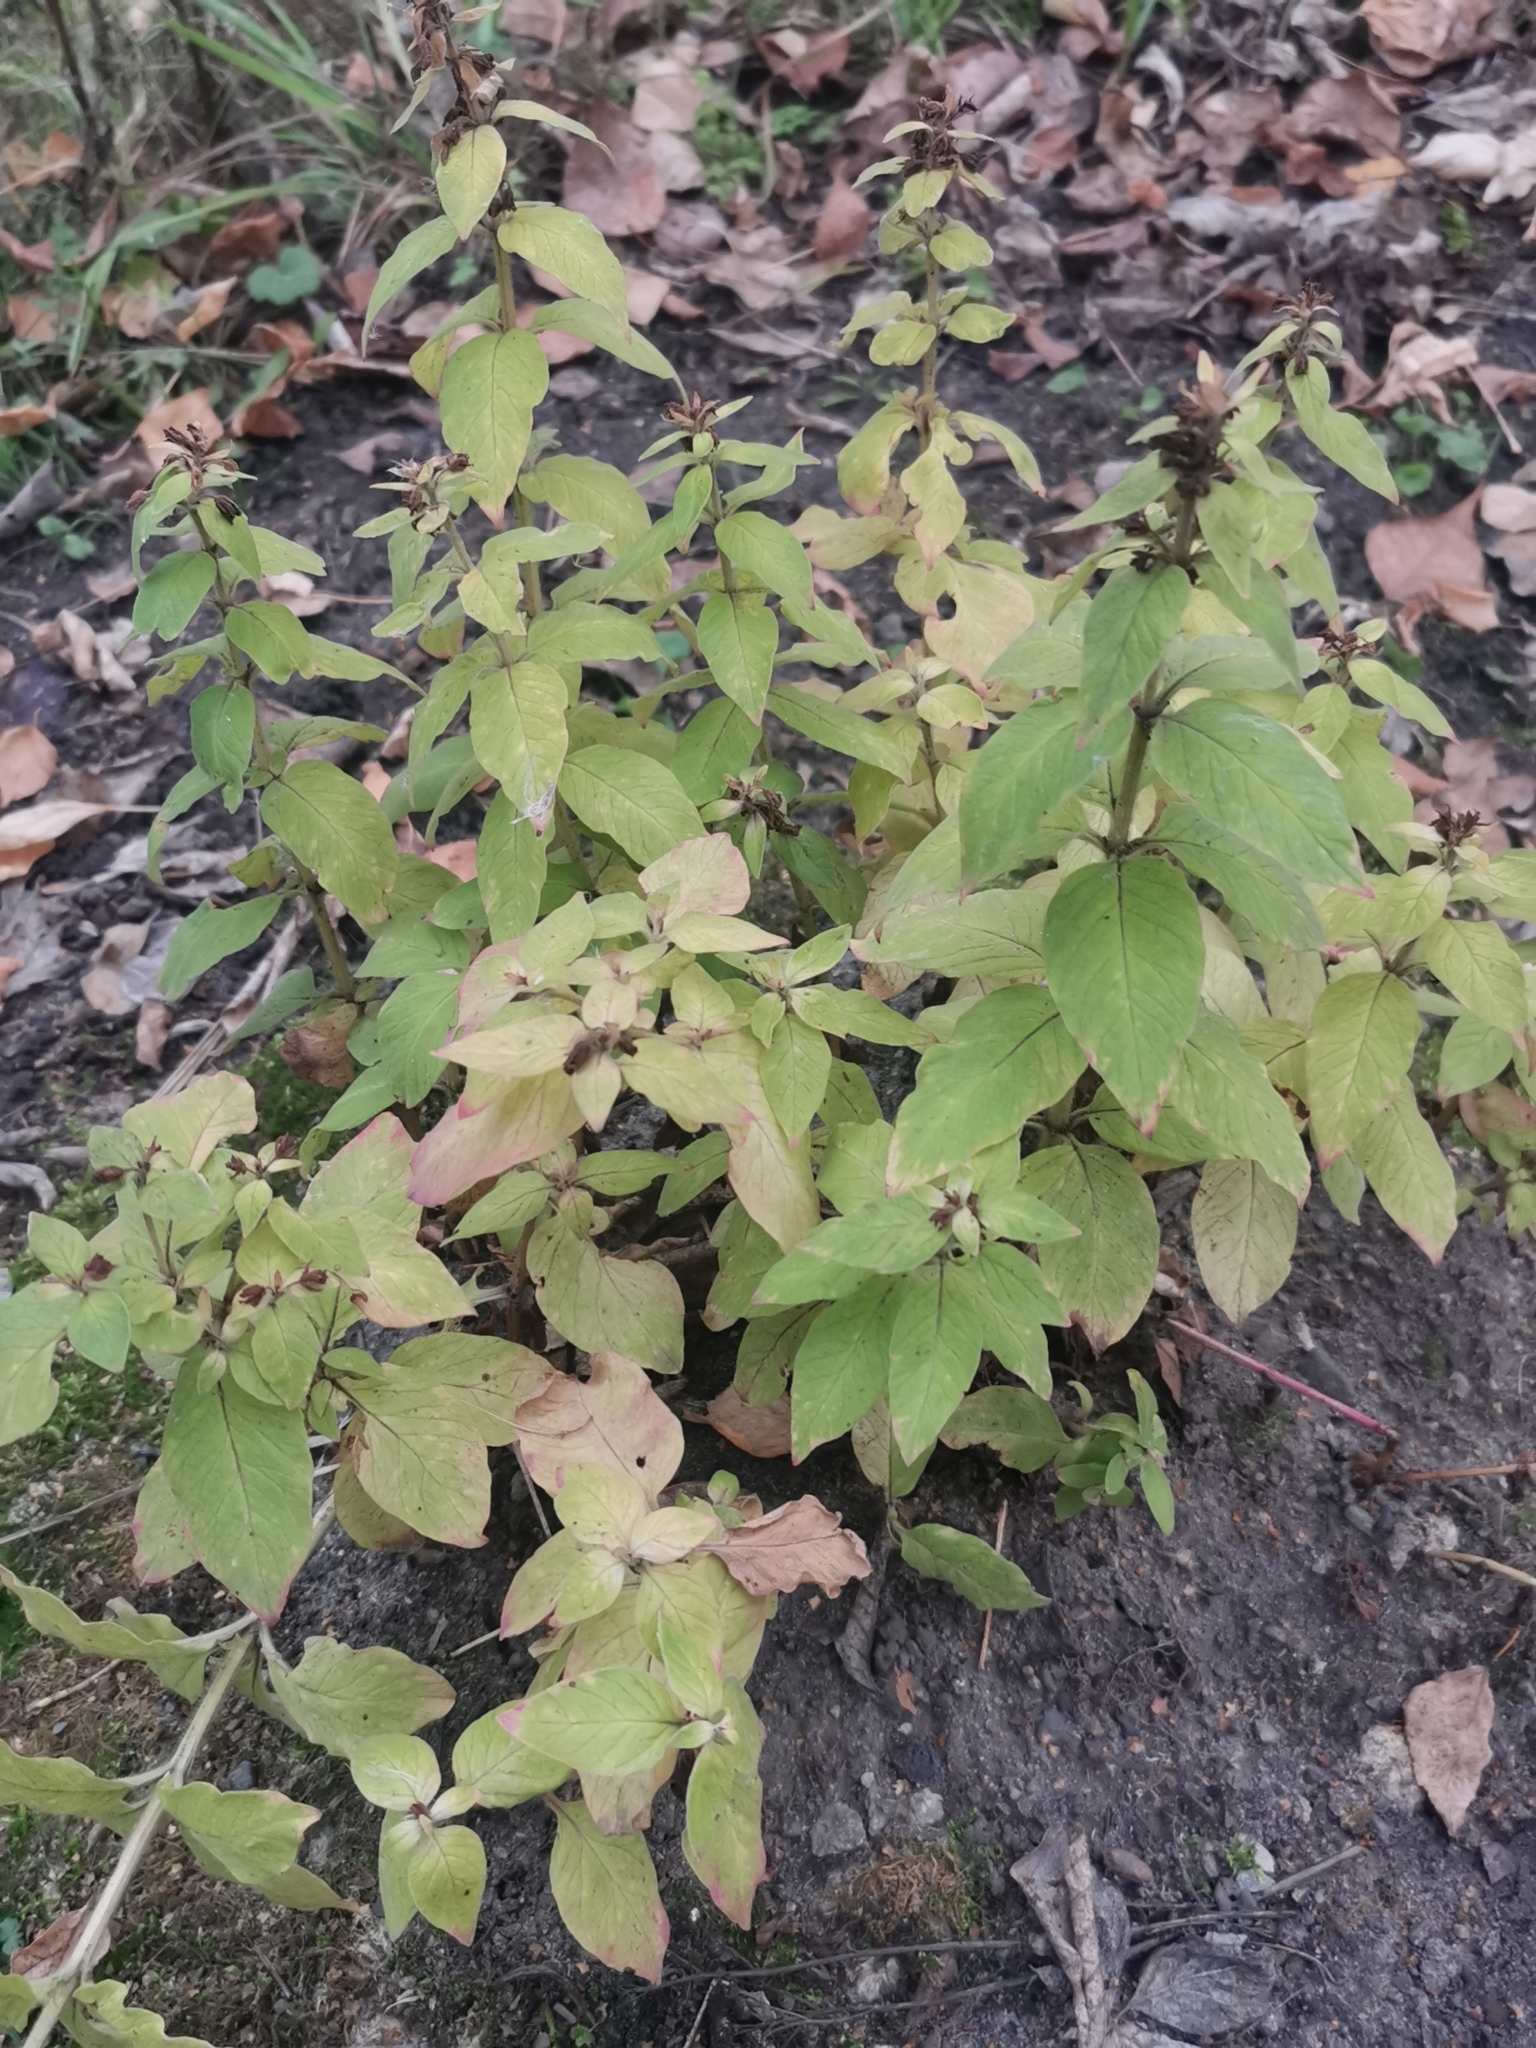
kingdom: Plantae
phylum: Tracheophyta
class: Magnoliopsida
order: Ericales
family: Primulaceae
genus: Lysimachia
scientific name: Lysimachia punctata
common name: Dotted loosestrife
